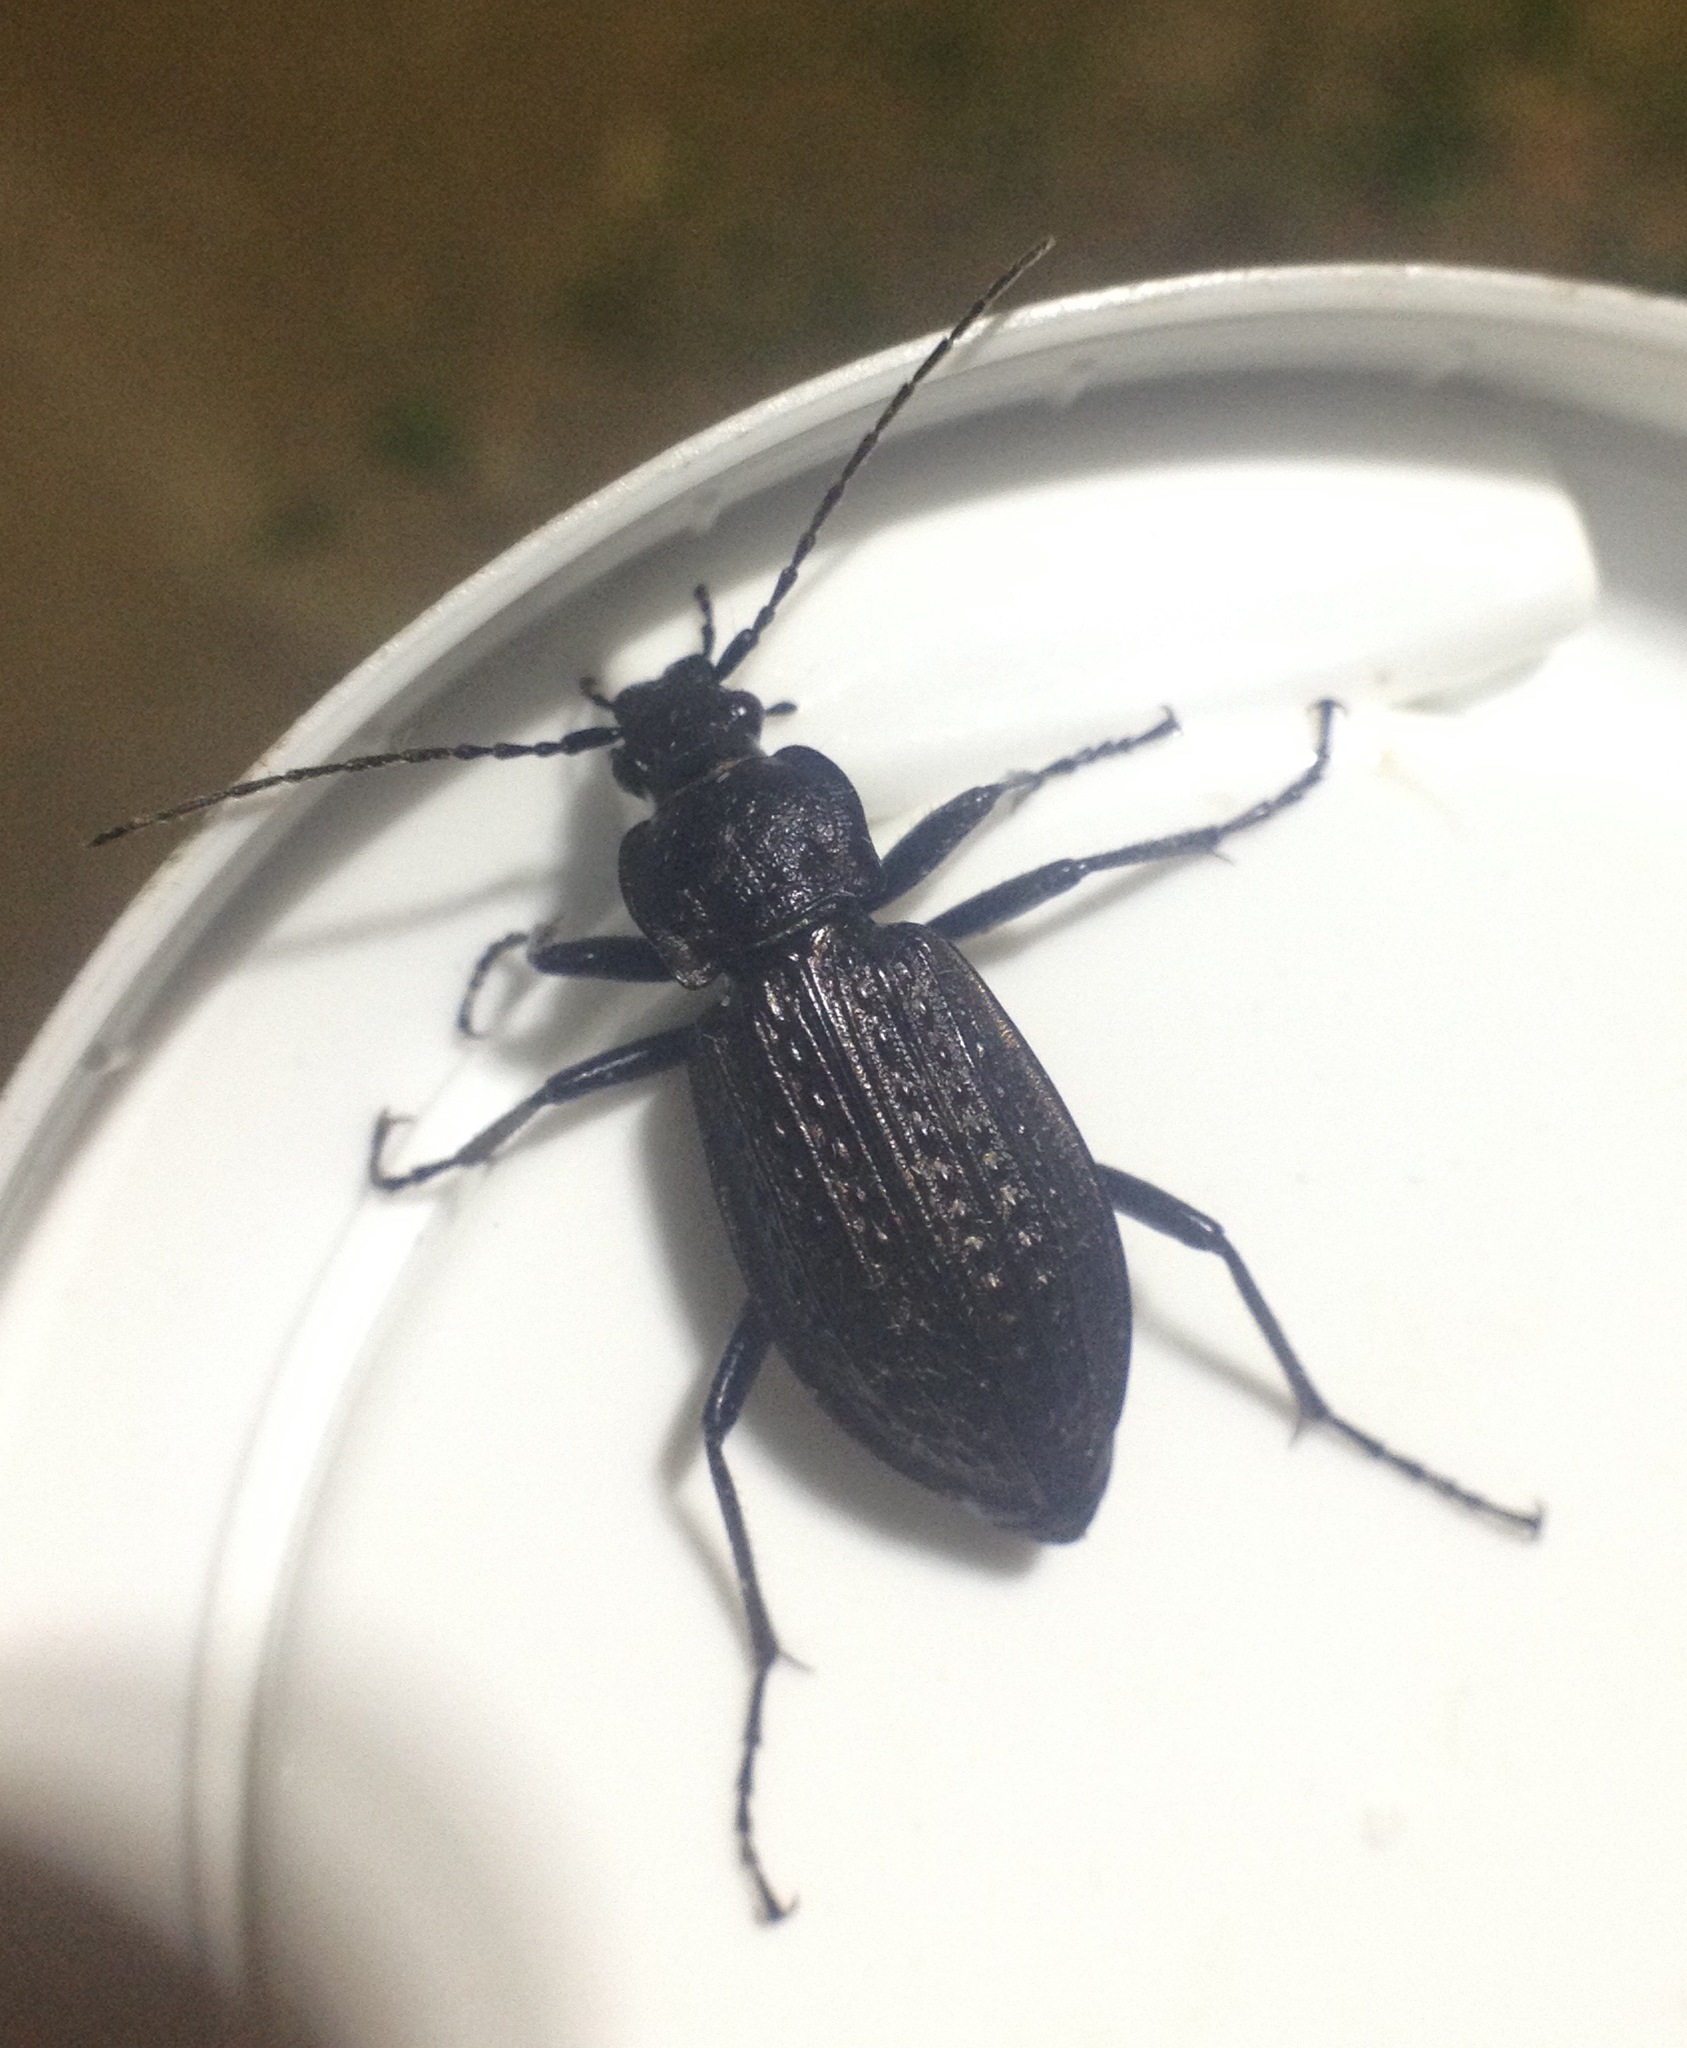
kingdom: Animalia
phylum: Arthropoda
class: Insecta
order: Coleoptera
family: Carabidae
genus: Carabus
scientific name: Carabus granulatus
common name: Granulate ground beetle
